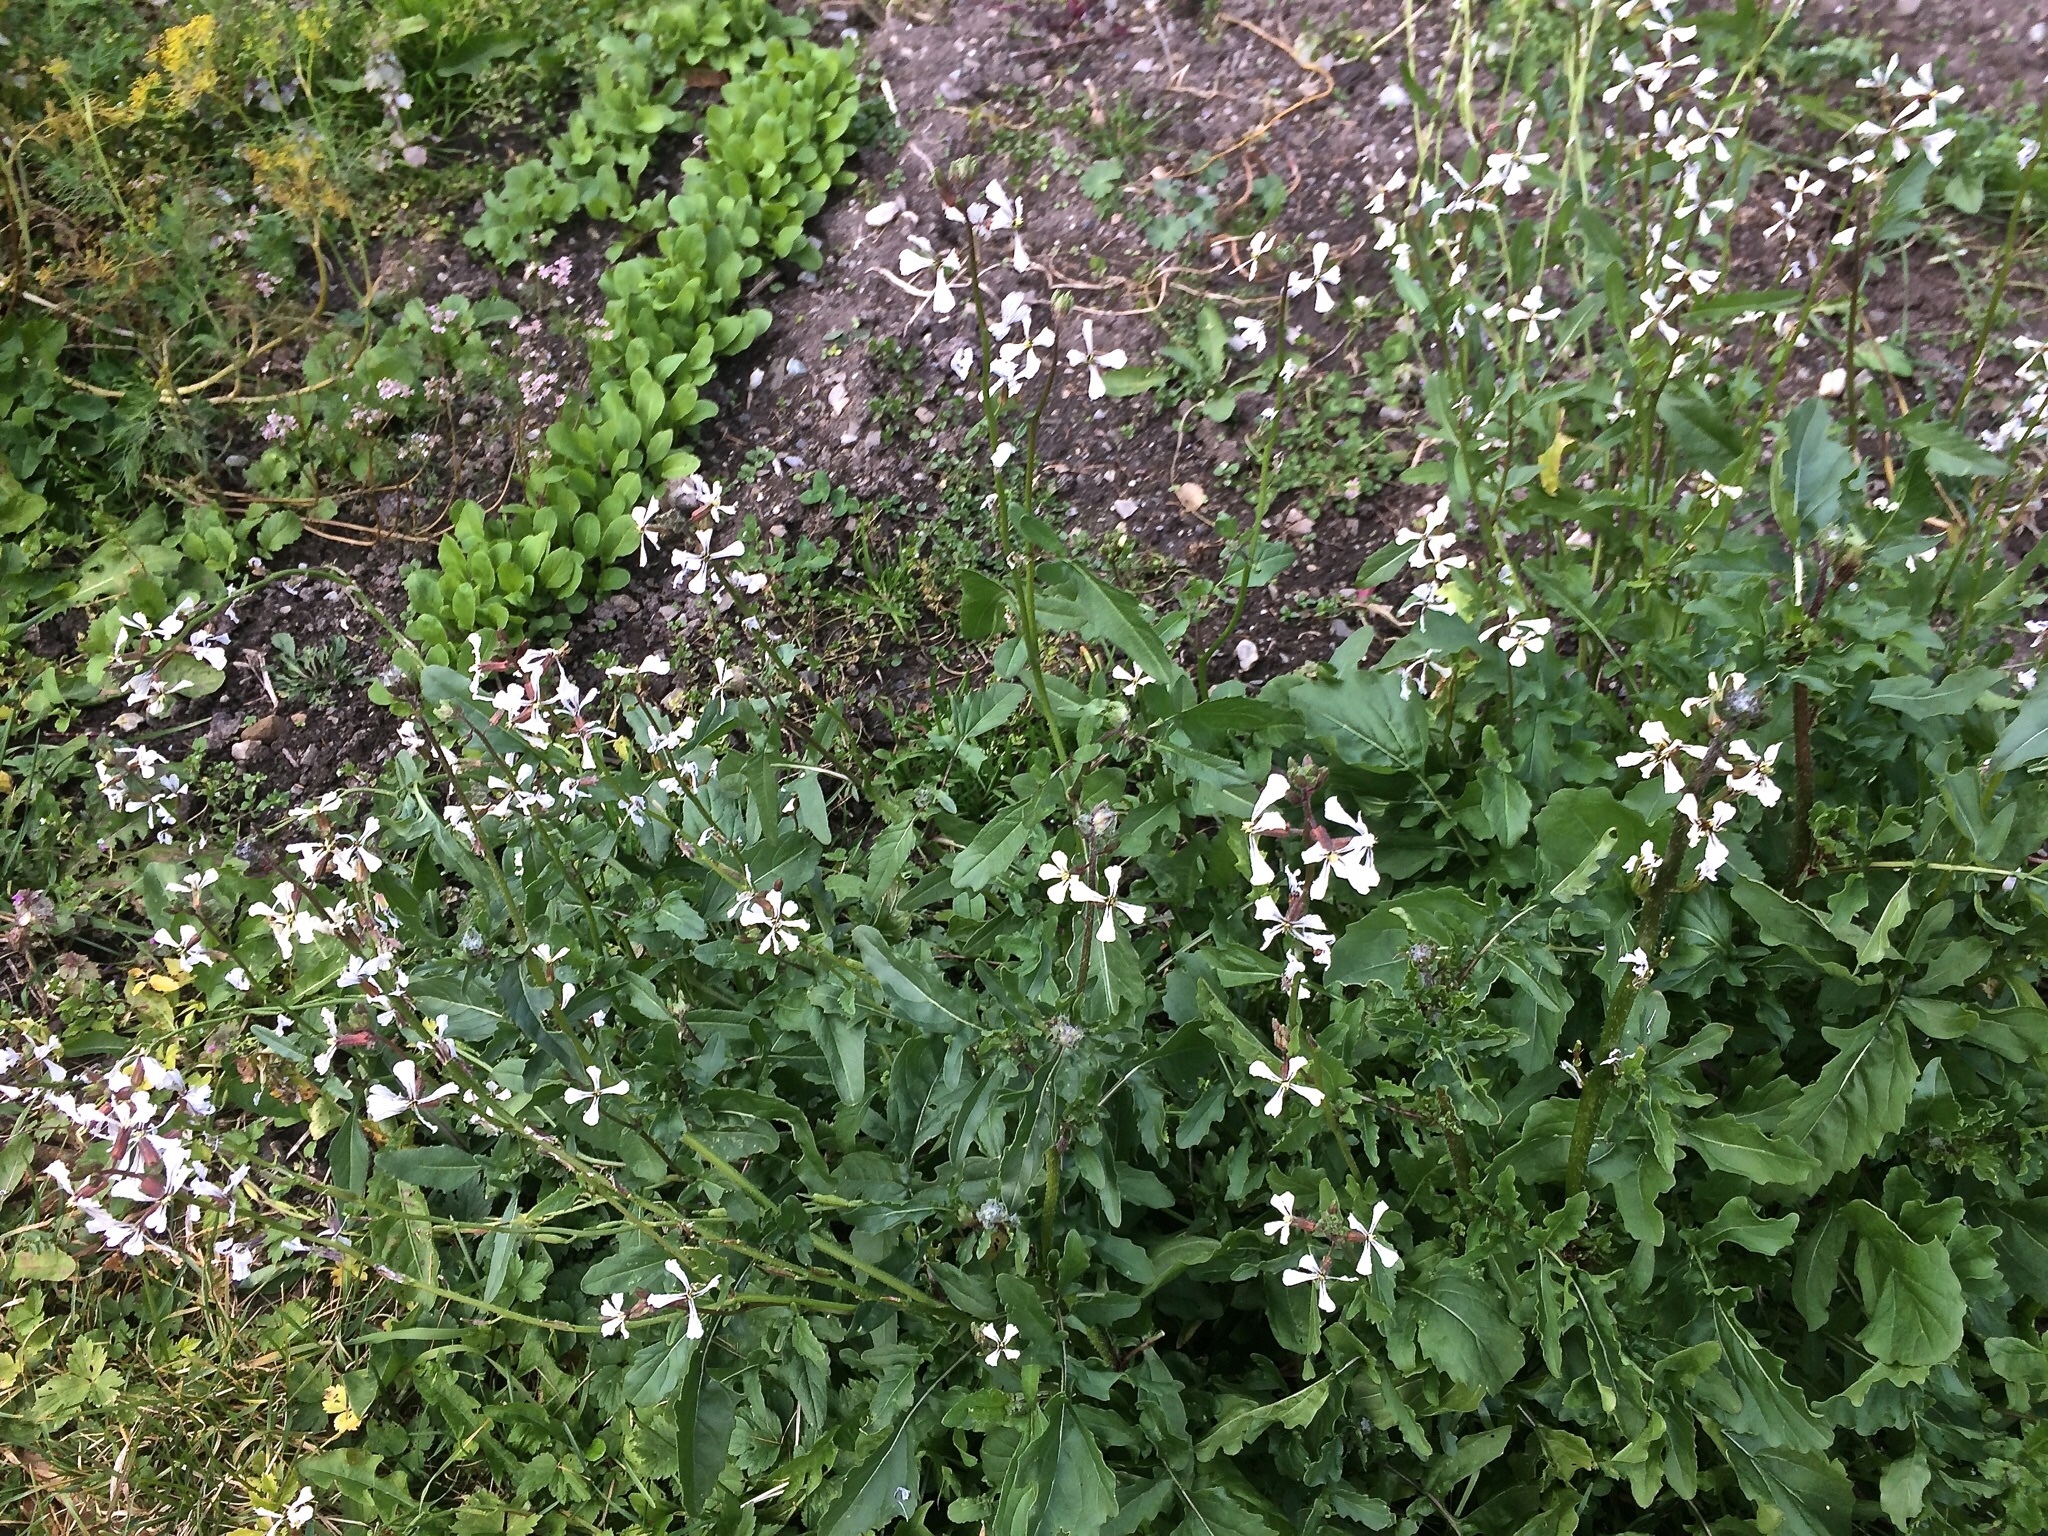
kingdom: Plantae
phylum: Tracheophyta
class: Magnoliopsida
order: Brassicales
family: Brassicaceae
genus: Eruca
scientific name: Eruca vesicaria
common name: Garden rocket
